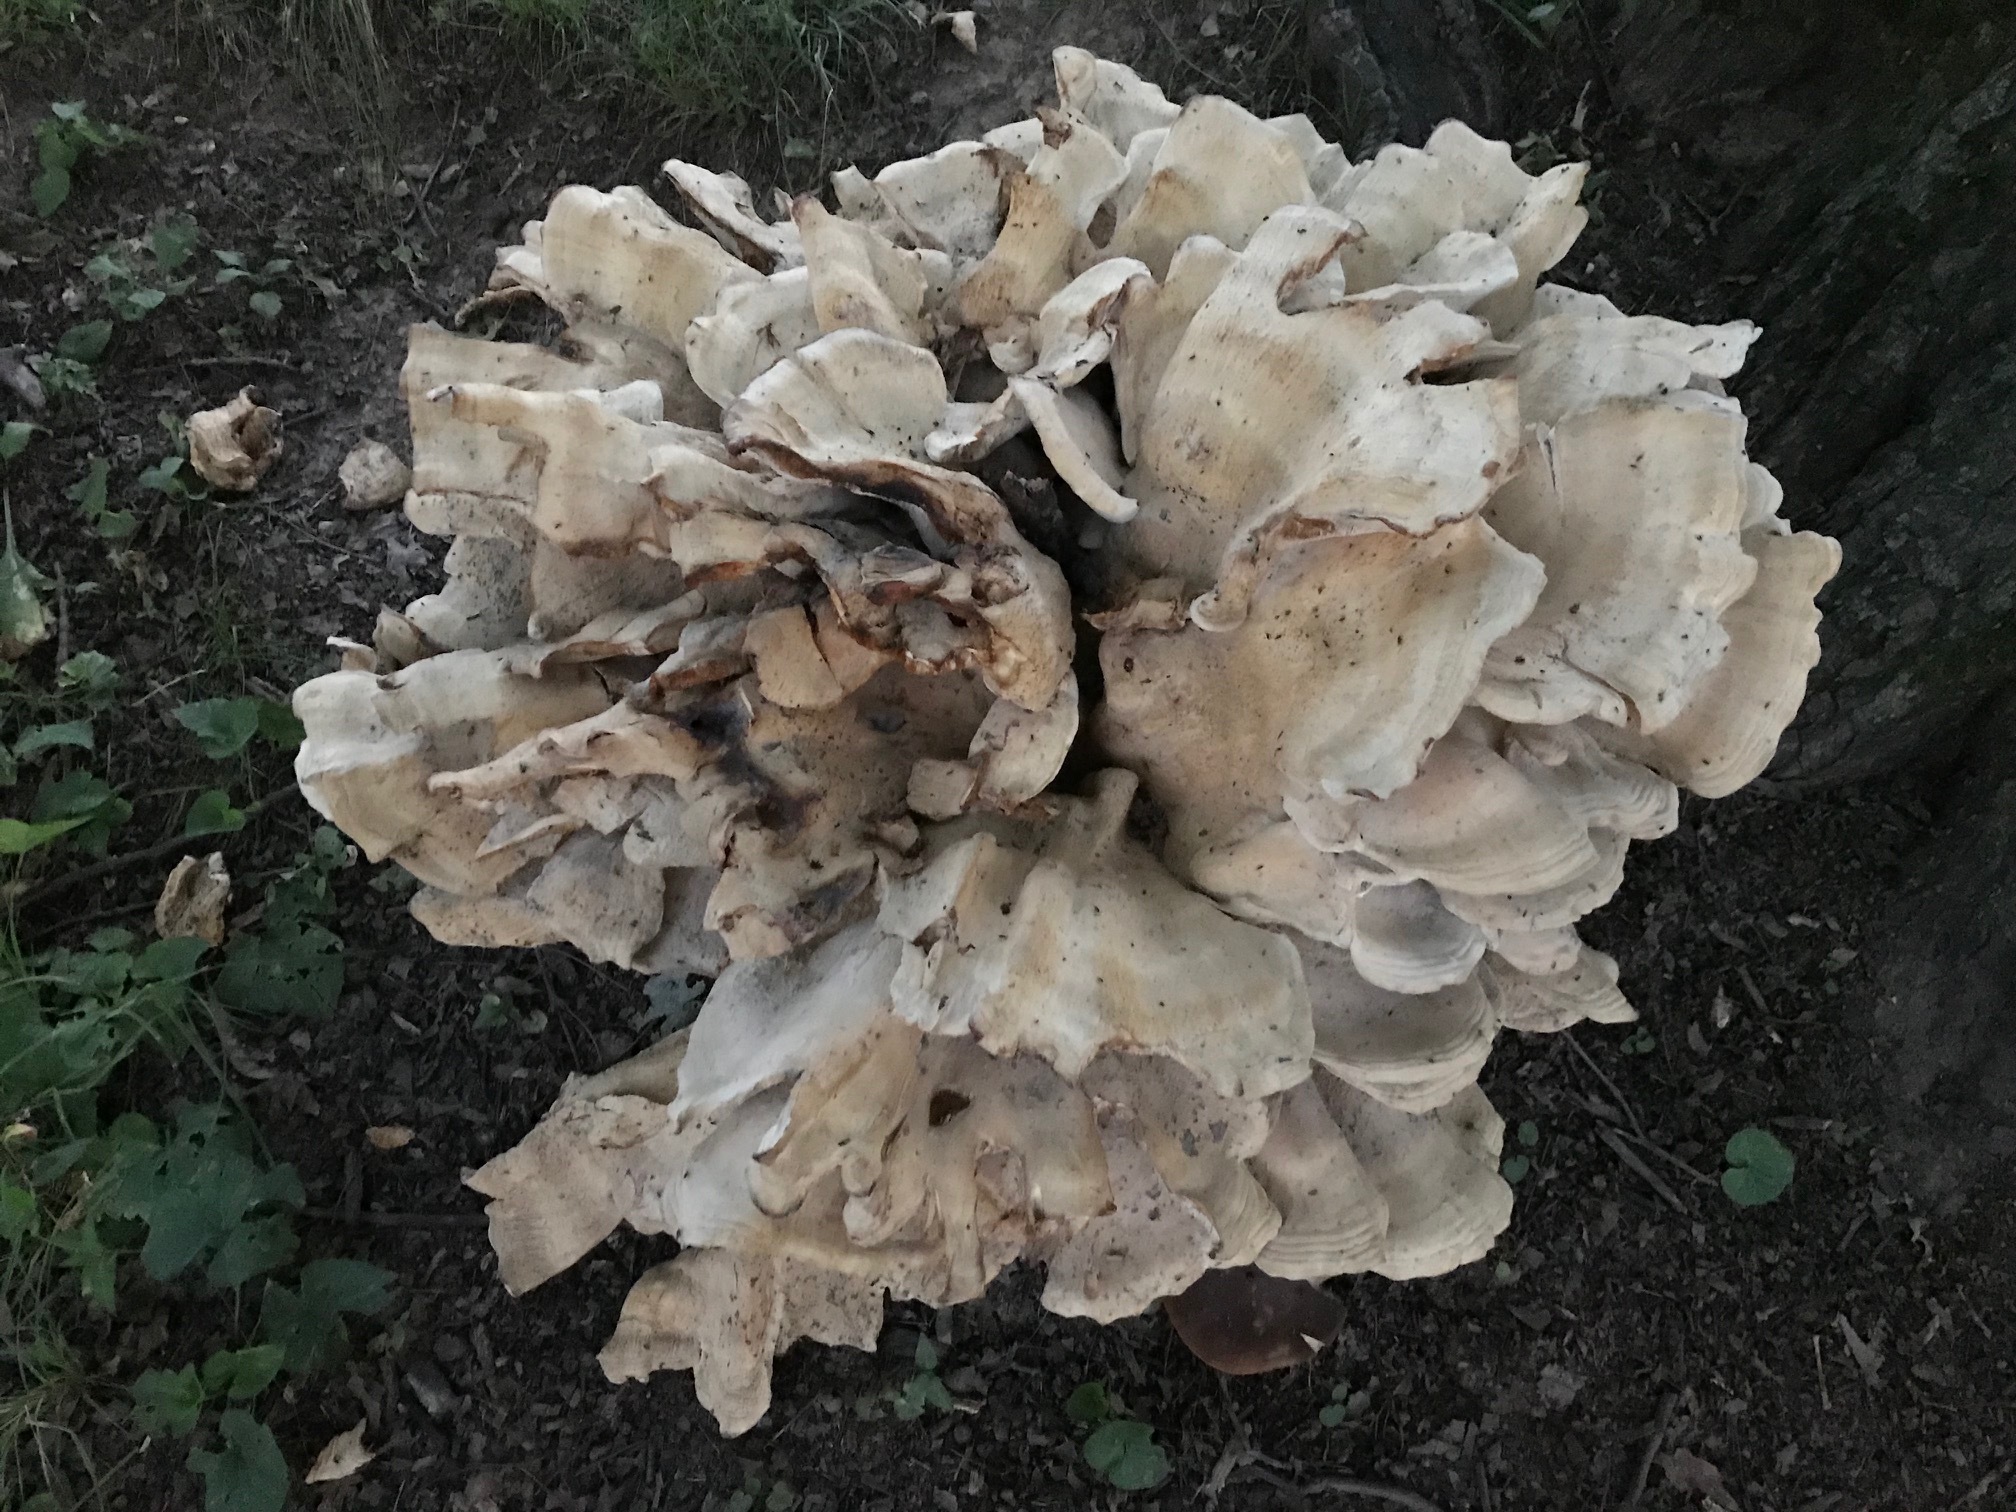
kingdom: Fungi
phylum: Basidiomycota
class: Agaricomycetes
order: Russulales
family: Bondarzewiaceae
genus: Bondarzewia
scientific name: Bondarzewia berkeleyi
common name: Berkeley's polypore
